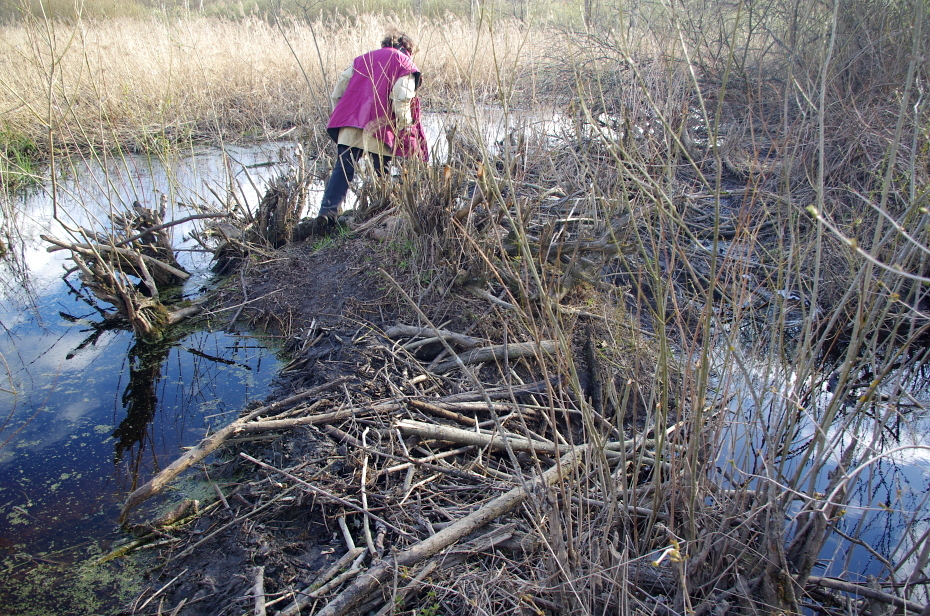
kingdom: Animalia
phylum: Chordata
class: Mammalia
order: Rodentia
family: Castoridae
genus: Castor
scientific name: Castor fiber
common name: Eurasian beaver
